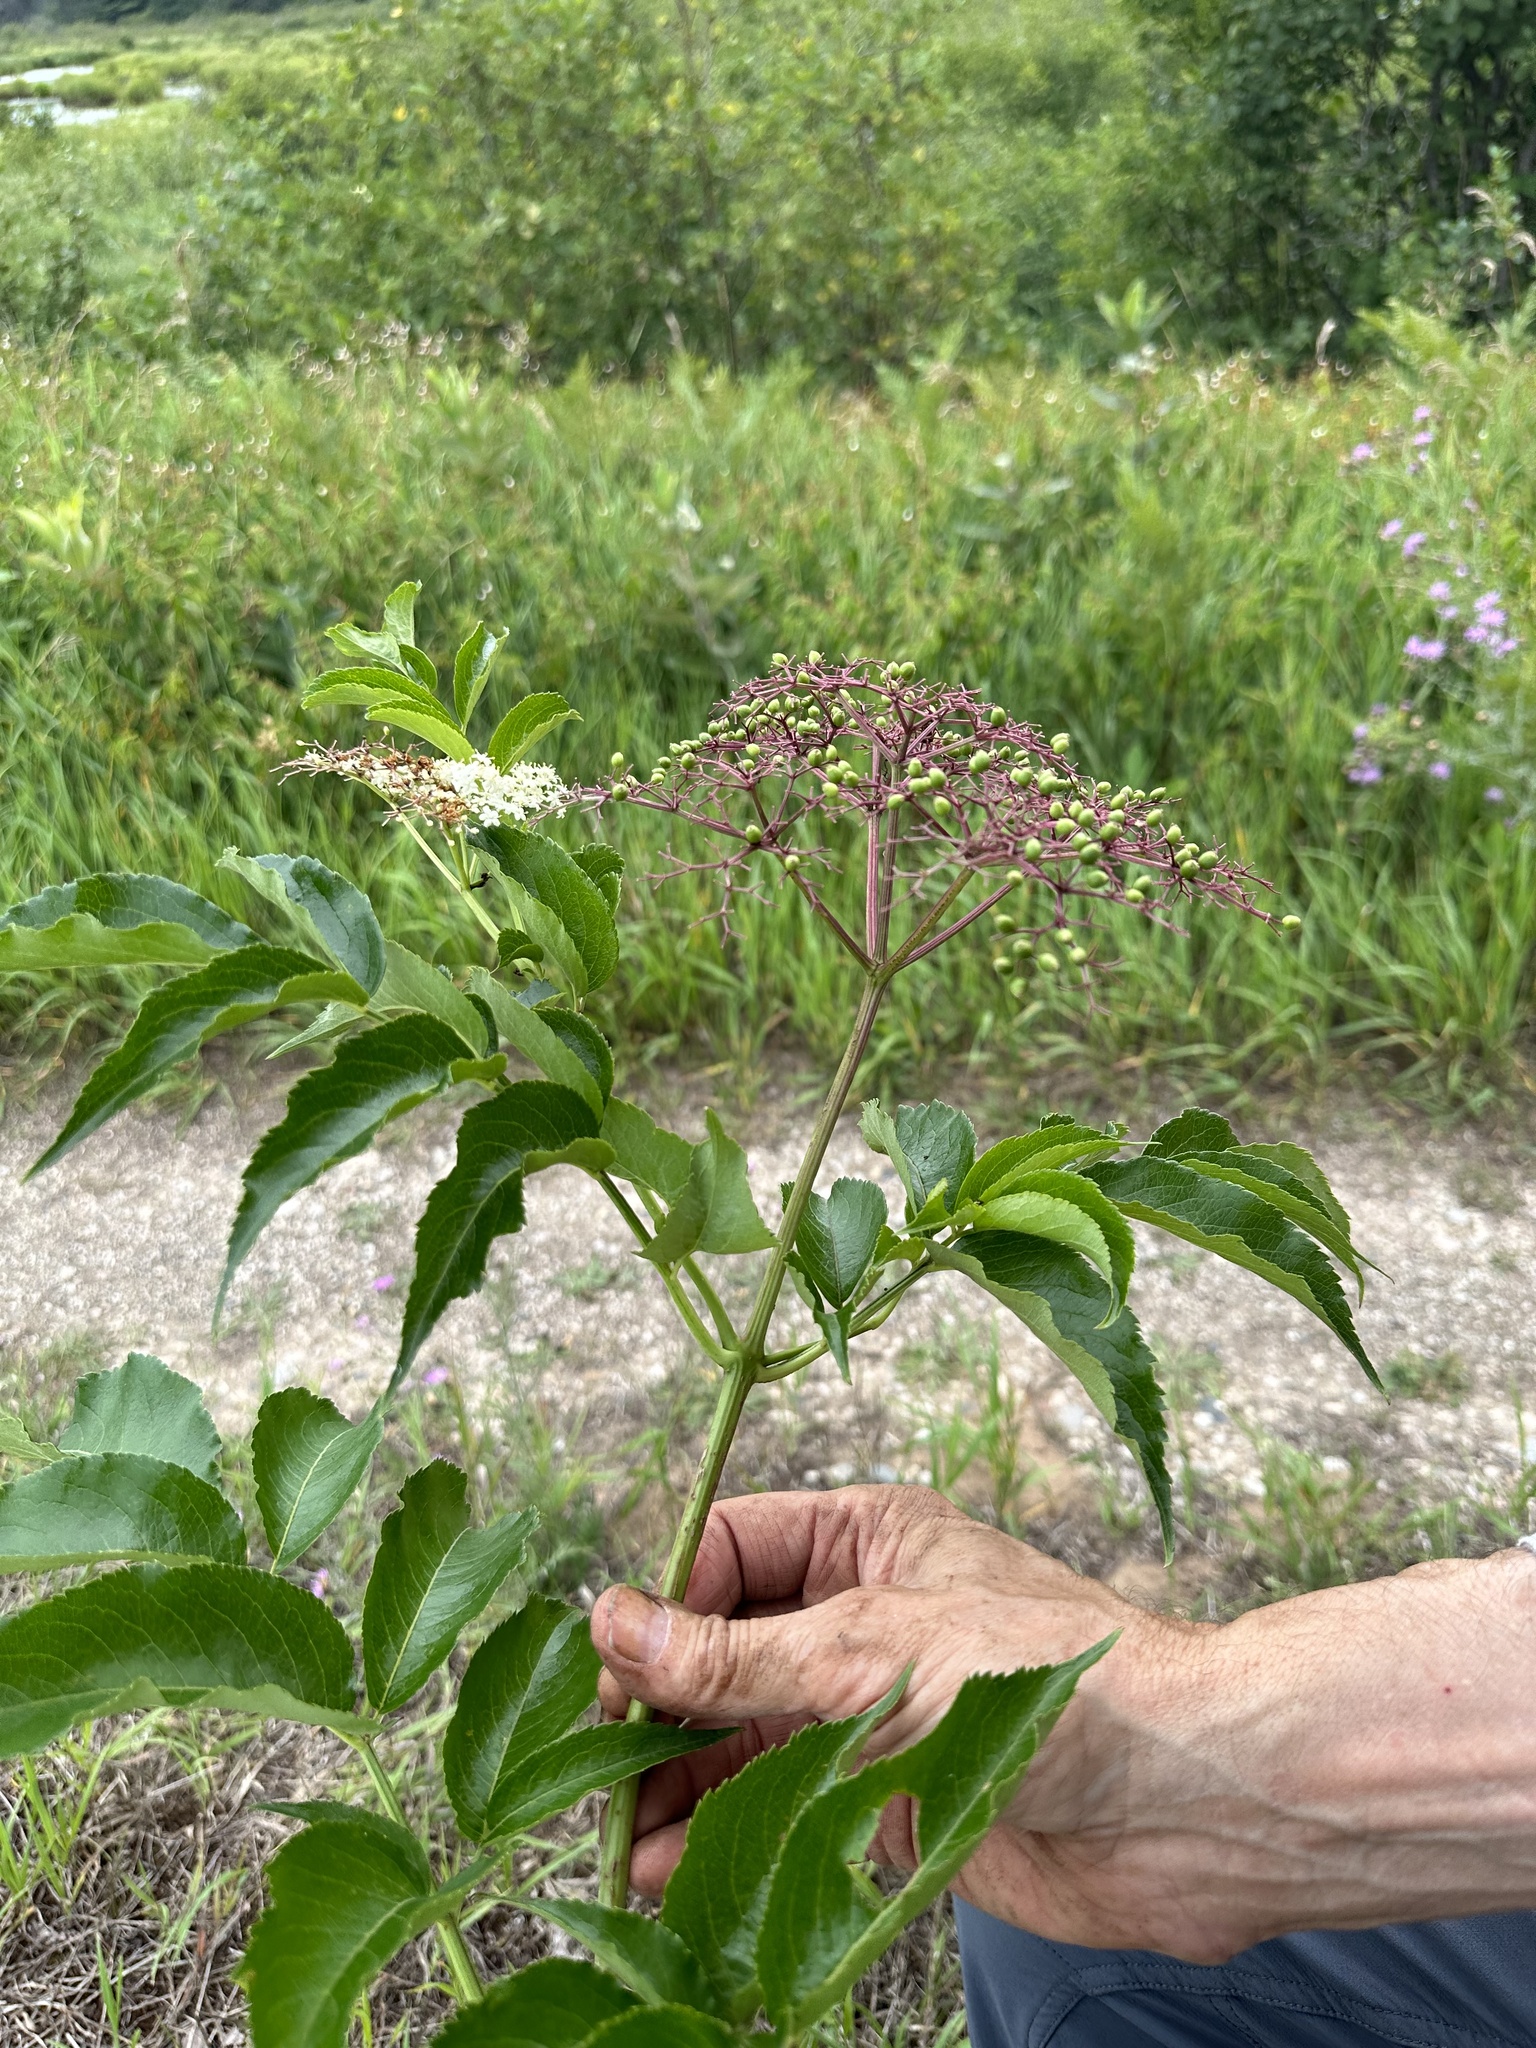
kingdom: Plantae
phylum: Tracheophyta
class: Magnoliopsida
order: Dipsacales
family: Viburnaceae
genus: Sambucus
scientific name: Sambucus canadensis
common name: American elder
